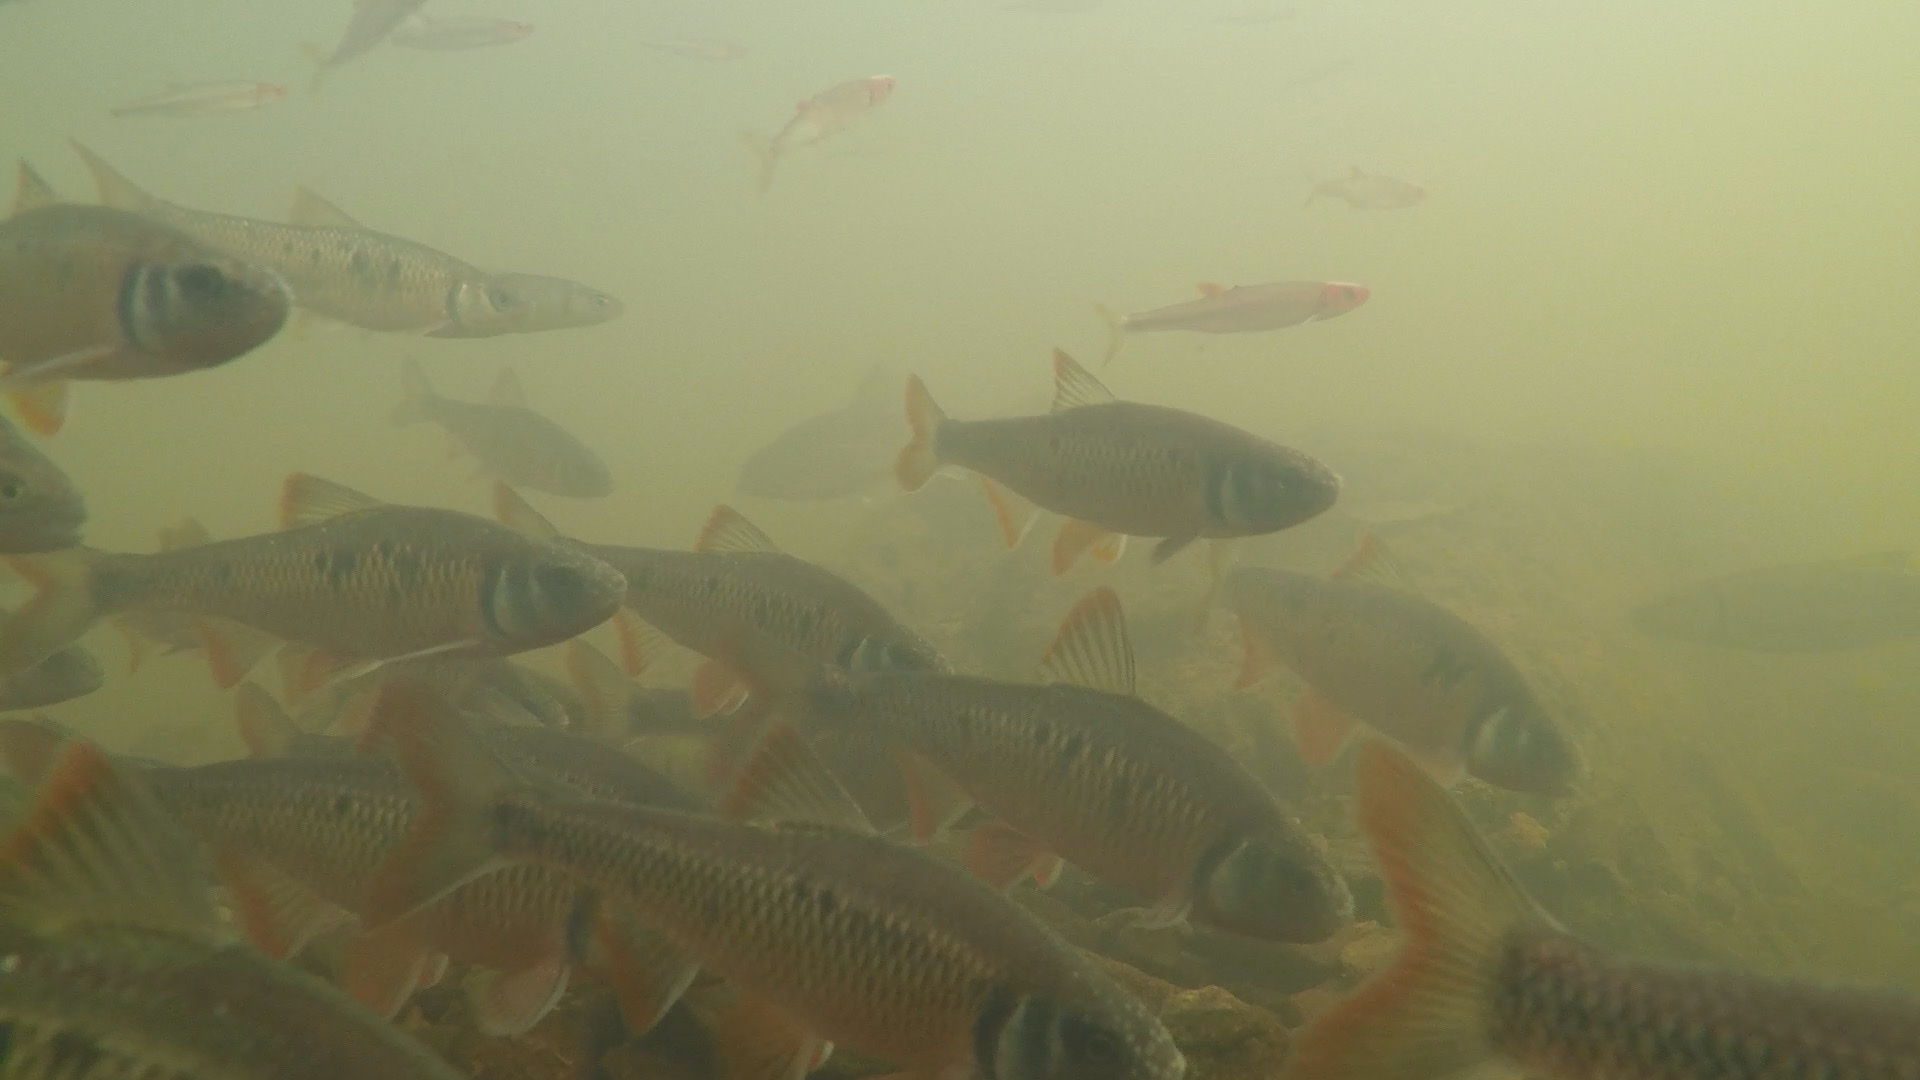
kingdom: Animalia
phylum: Chordata
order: Cypriniformes
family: Cyprinidae
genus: Luxilus
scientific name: Luxilus albeolus
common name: White shiner
